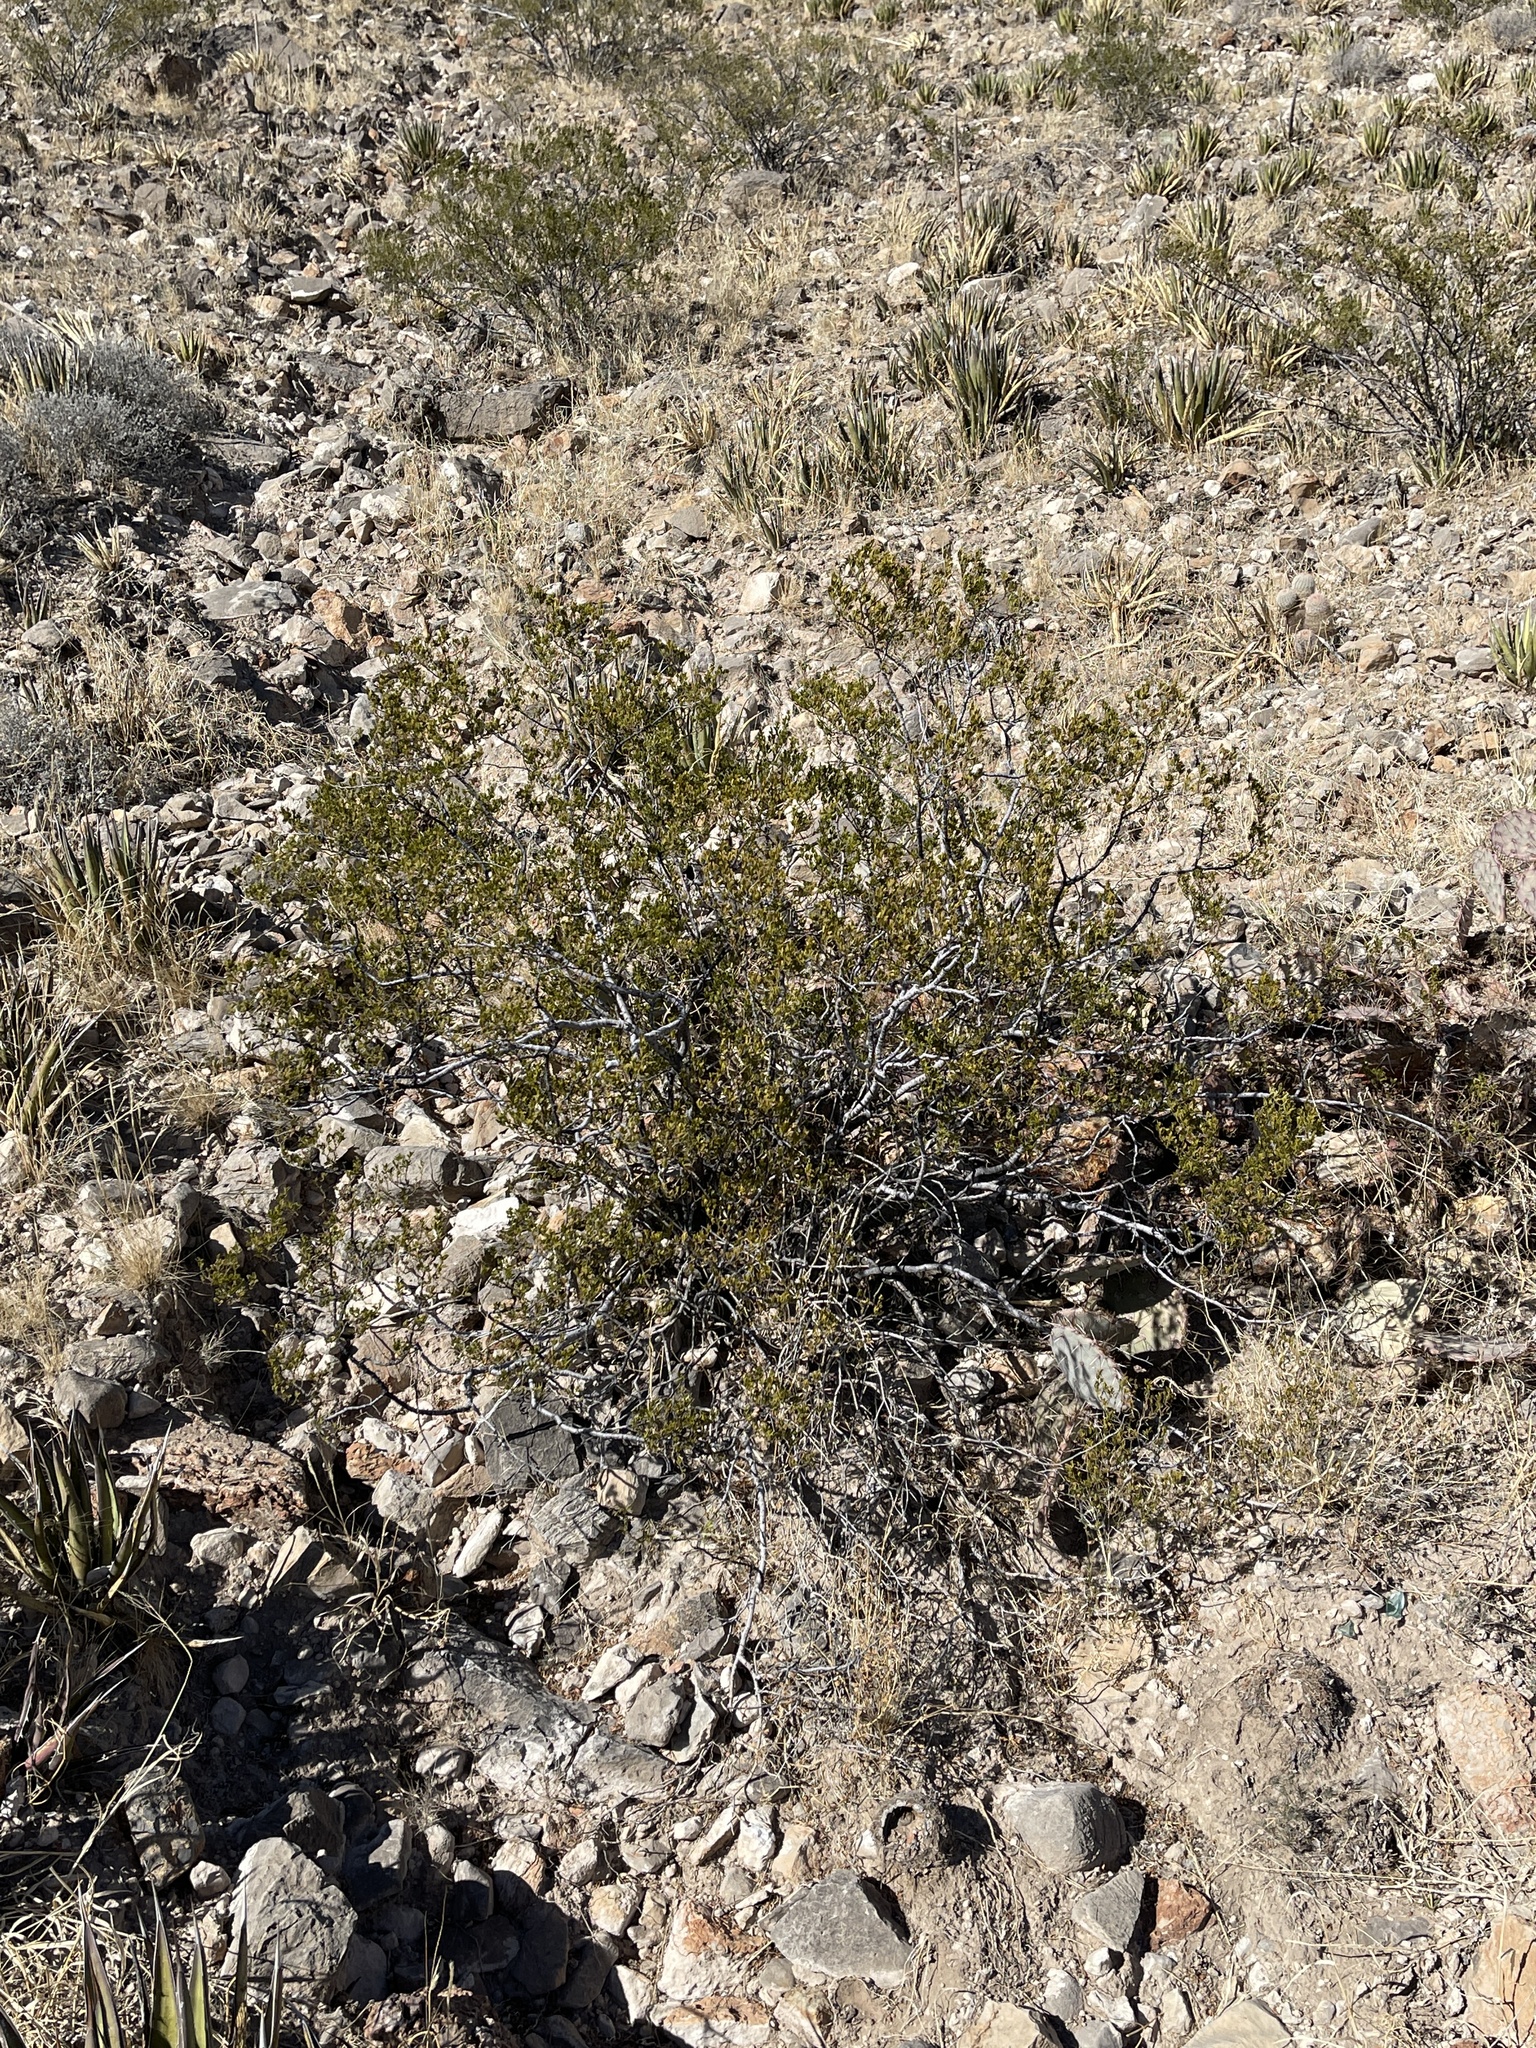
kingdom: Plantae
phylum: Tracheophyta
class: Magnoliopsida
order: Zygophyllales
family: Zygophyllaceae
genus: Larrea
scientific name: Larrea tridentata
